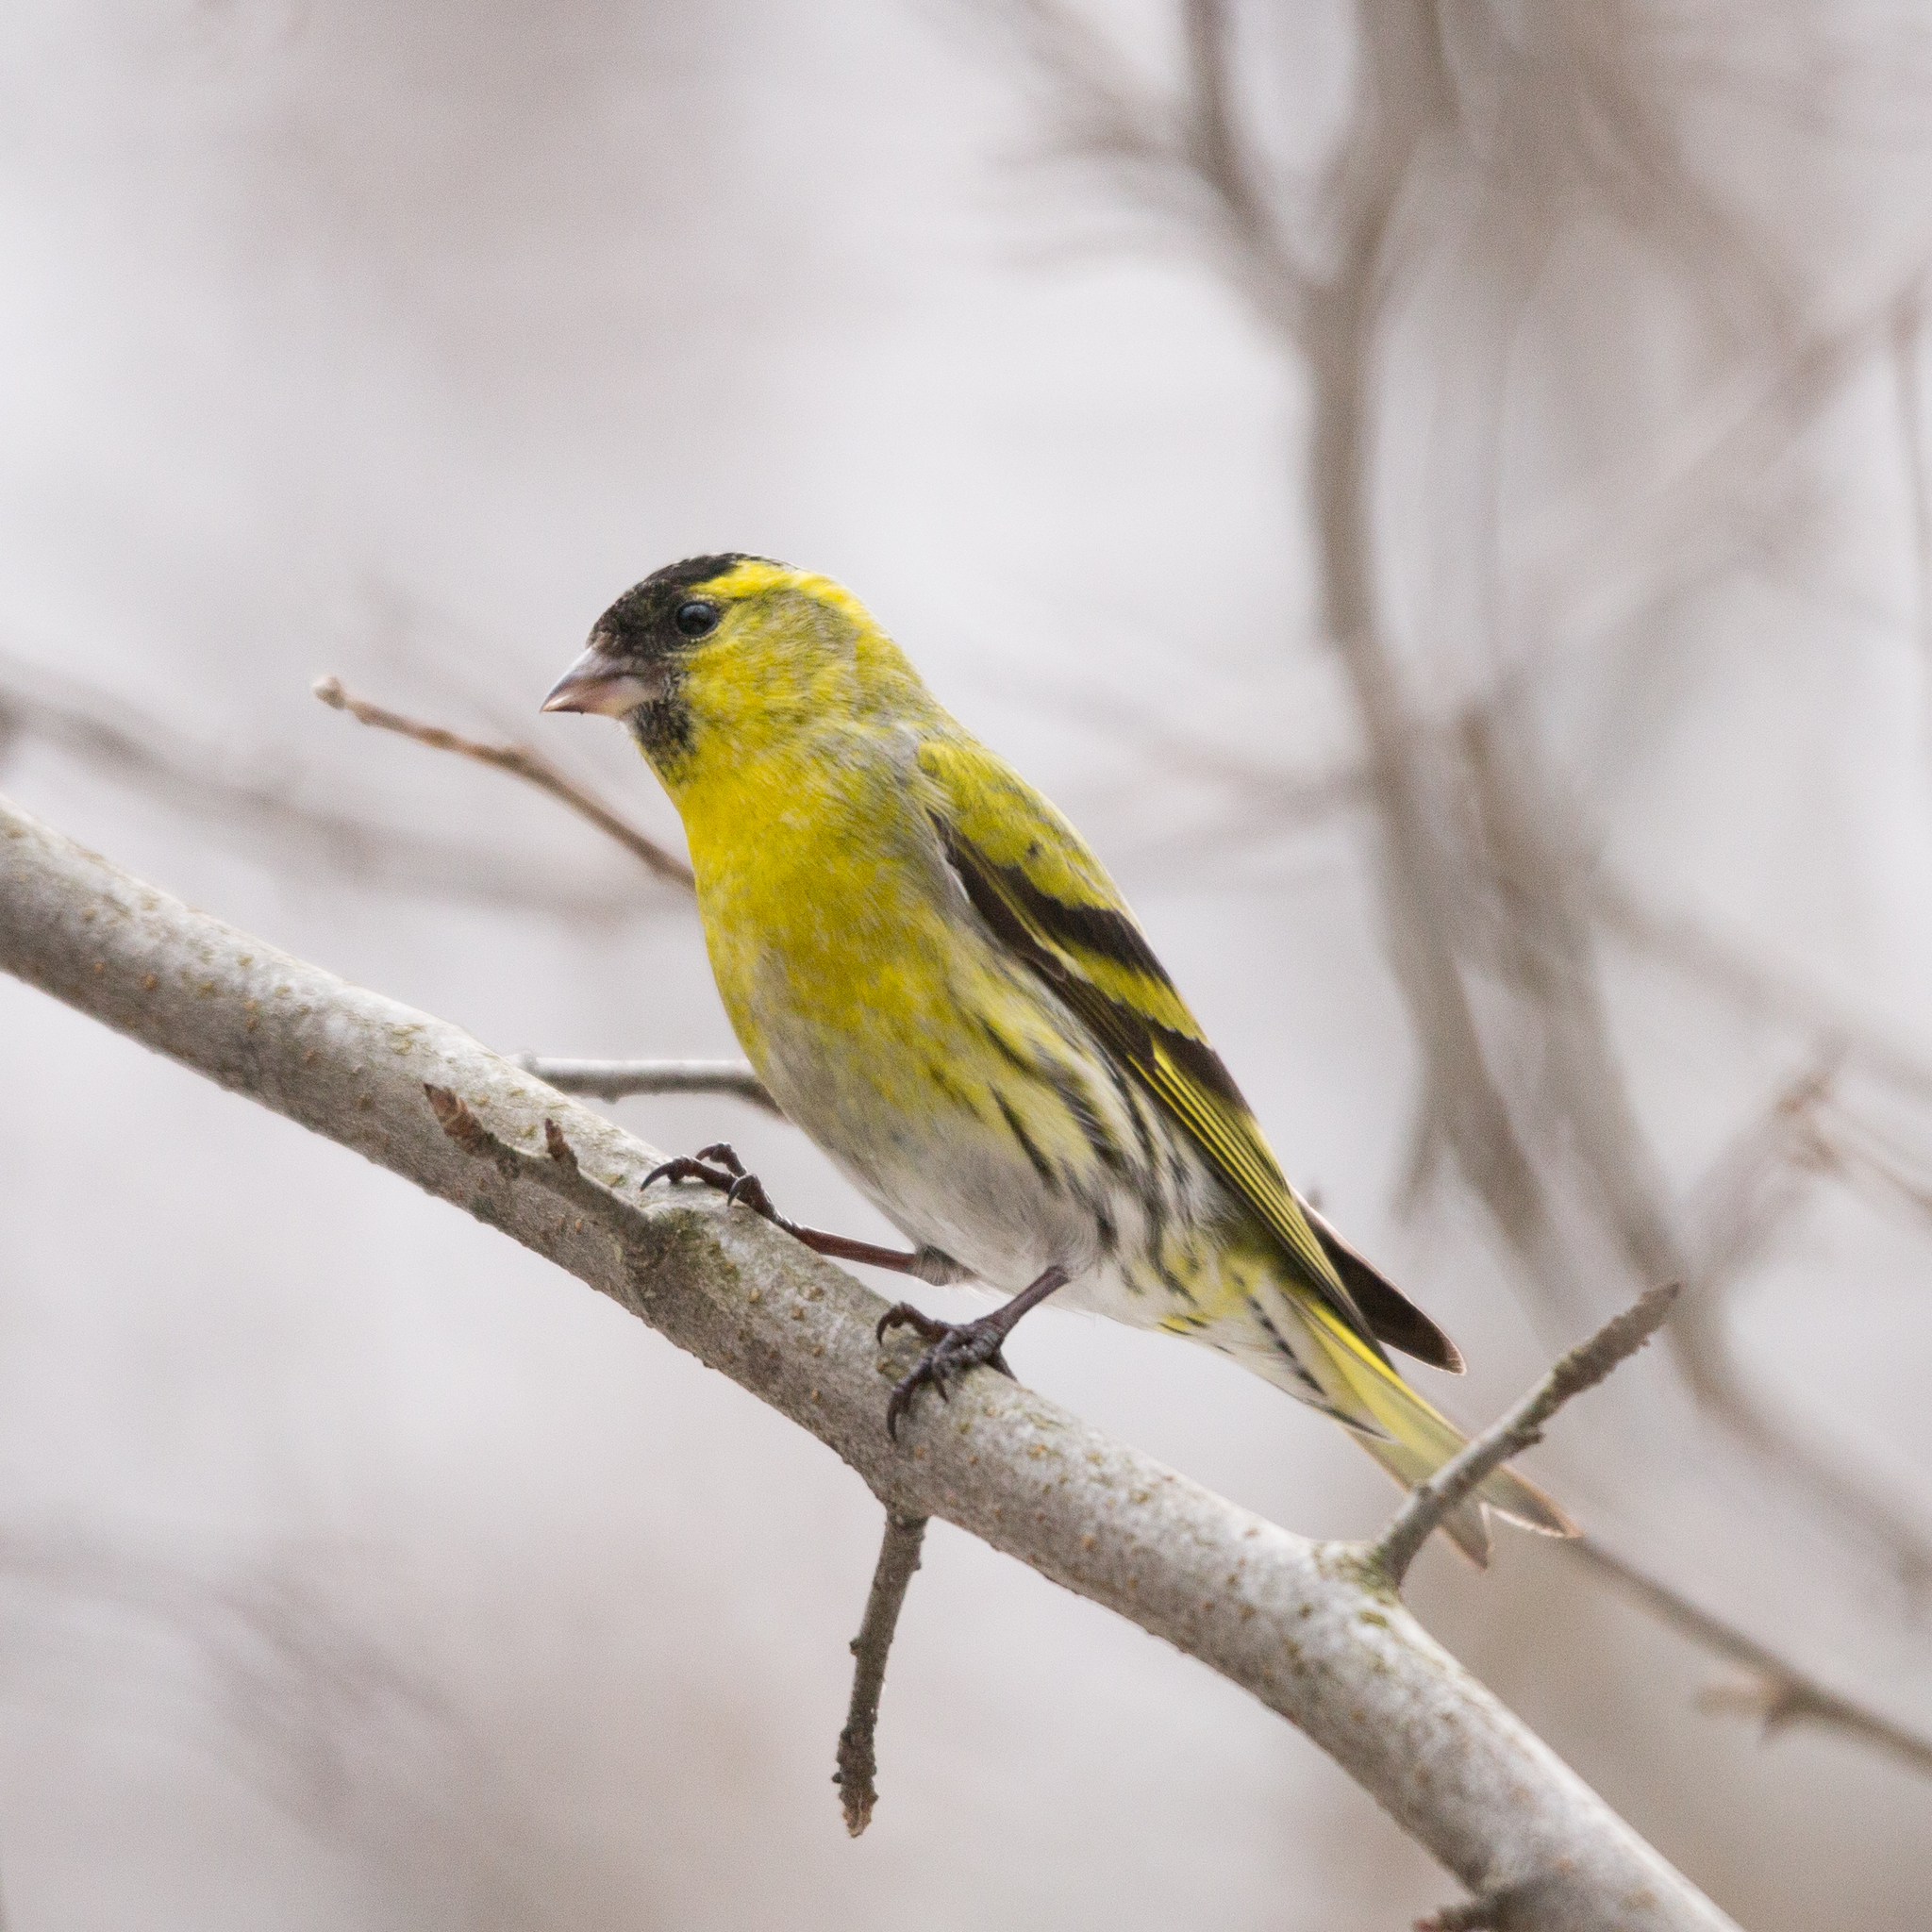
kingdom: Animalia
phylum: Chordata
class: Aves
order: Passeriformes
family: Fringillidae
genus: Spinus
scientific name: Spinus spinus
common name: Eurasian siskin
